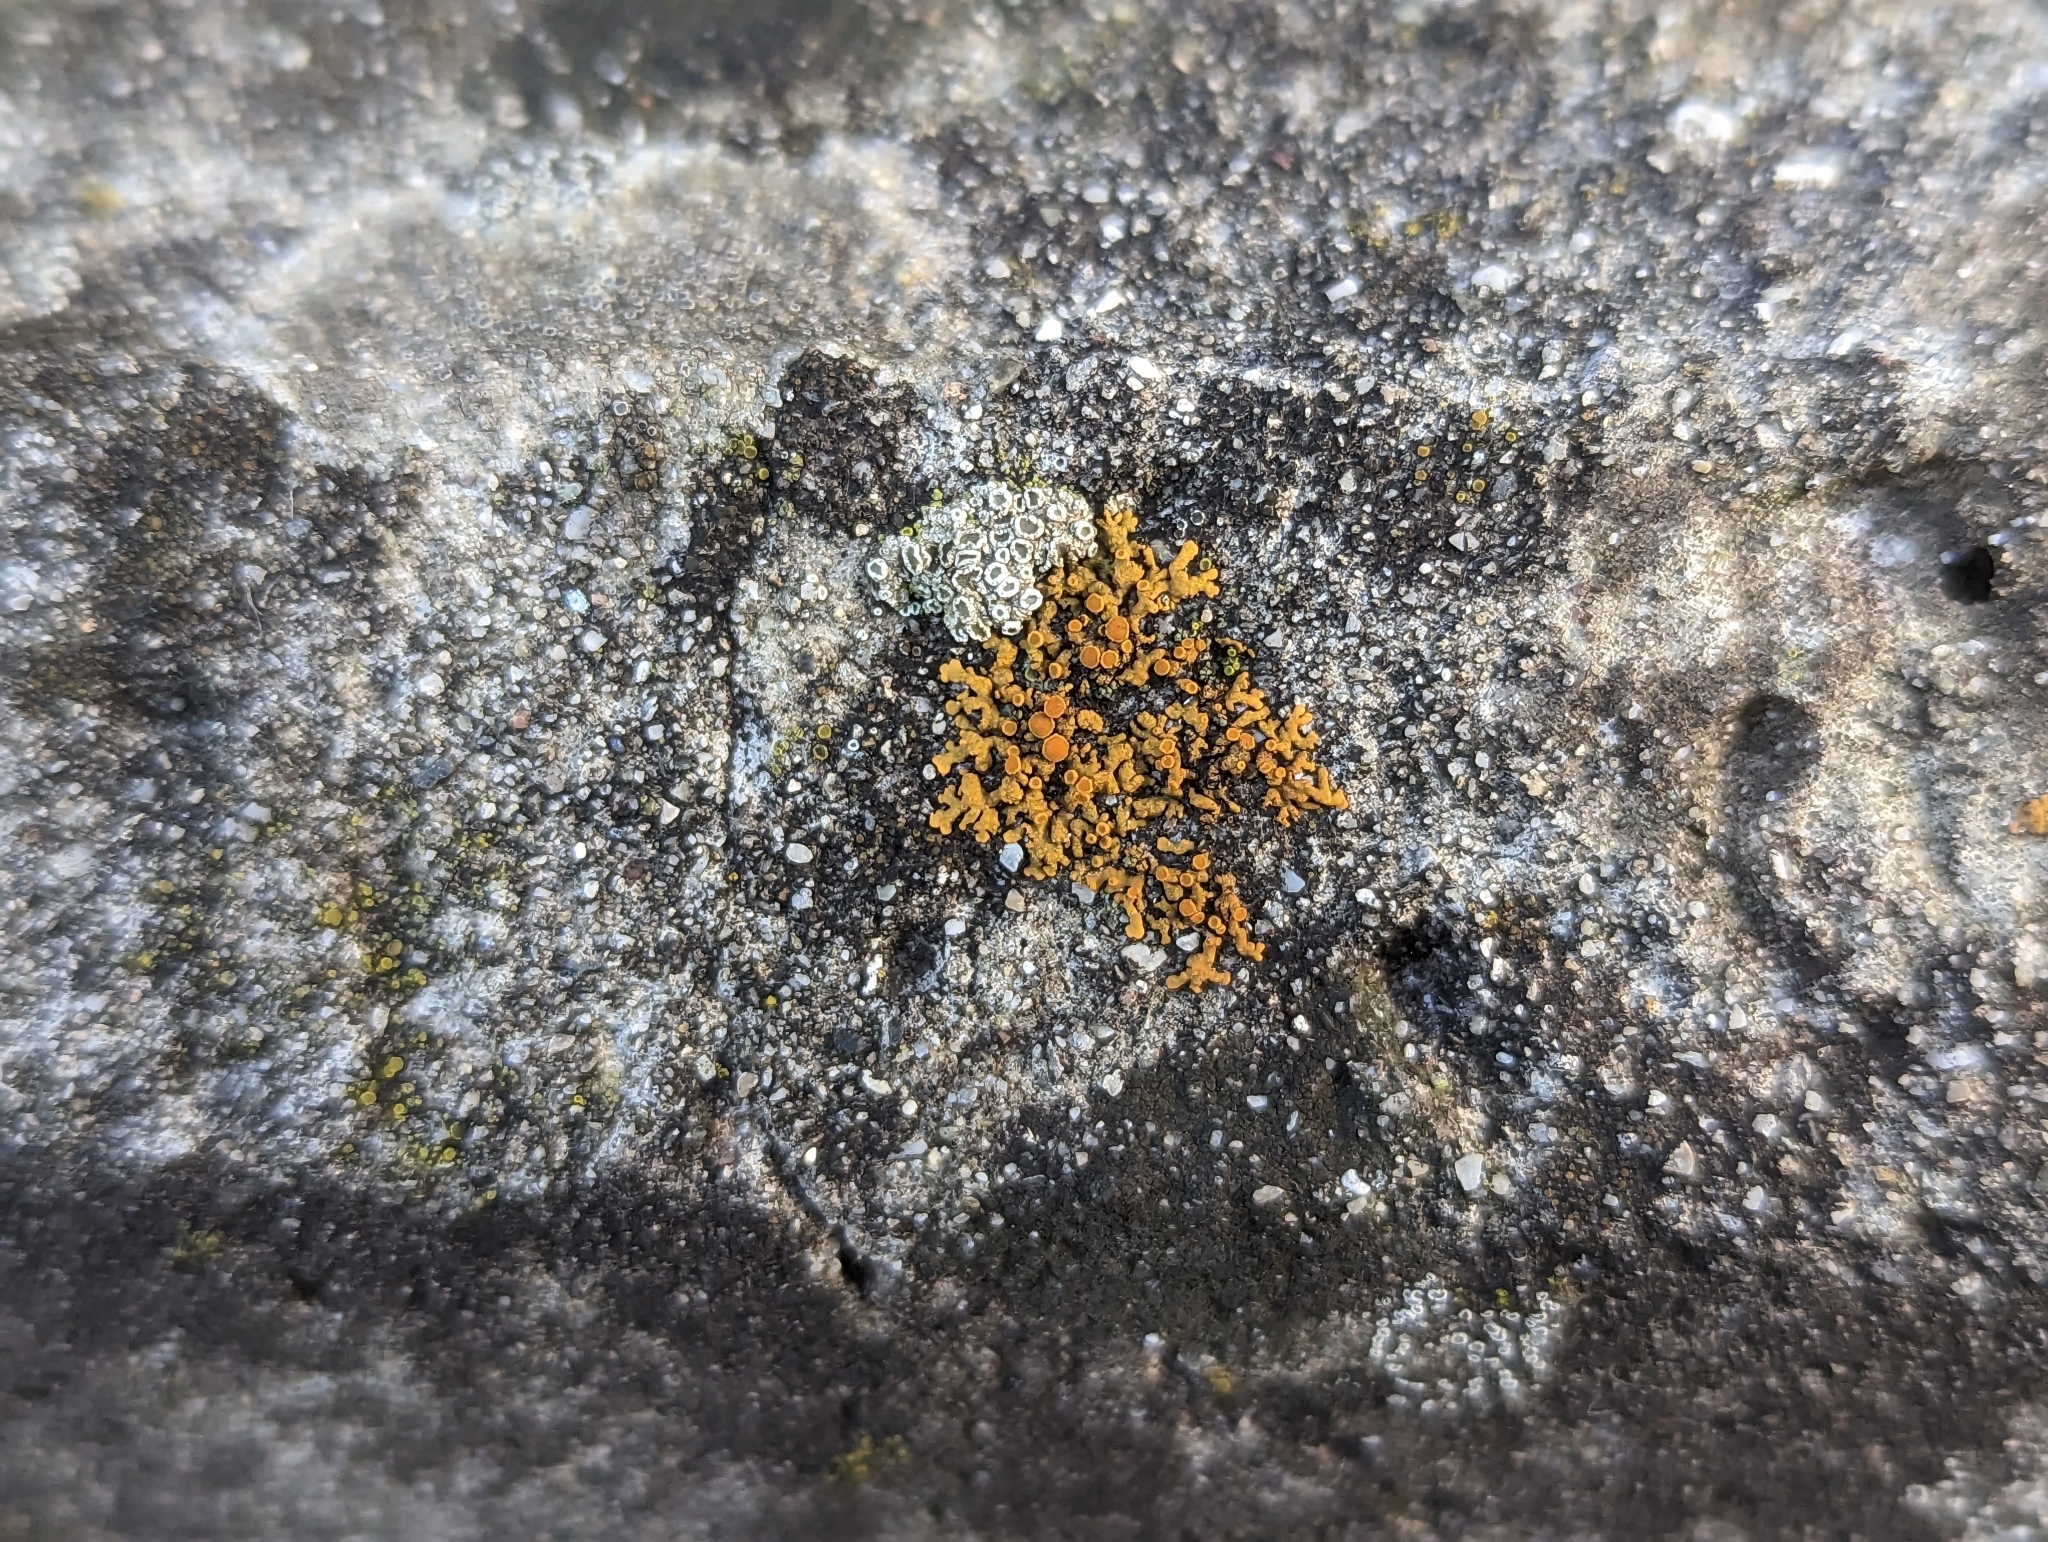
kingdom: Fungi
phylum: Ascomycota
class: Lecanoromycetes
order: Teloschistales
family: Teloschistaceae
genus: Xanthoria
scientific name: Xanthoria elegans
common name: Elegant sunburst lichen
